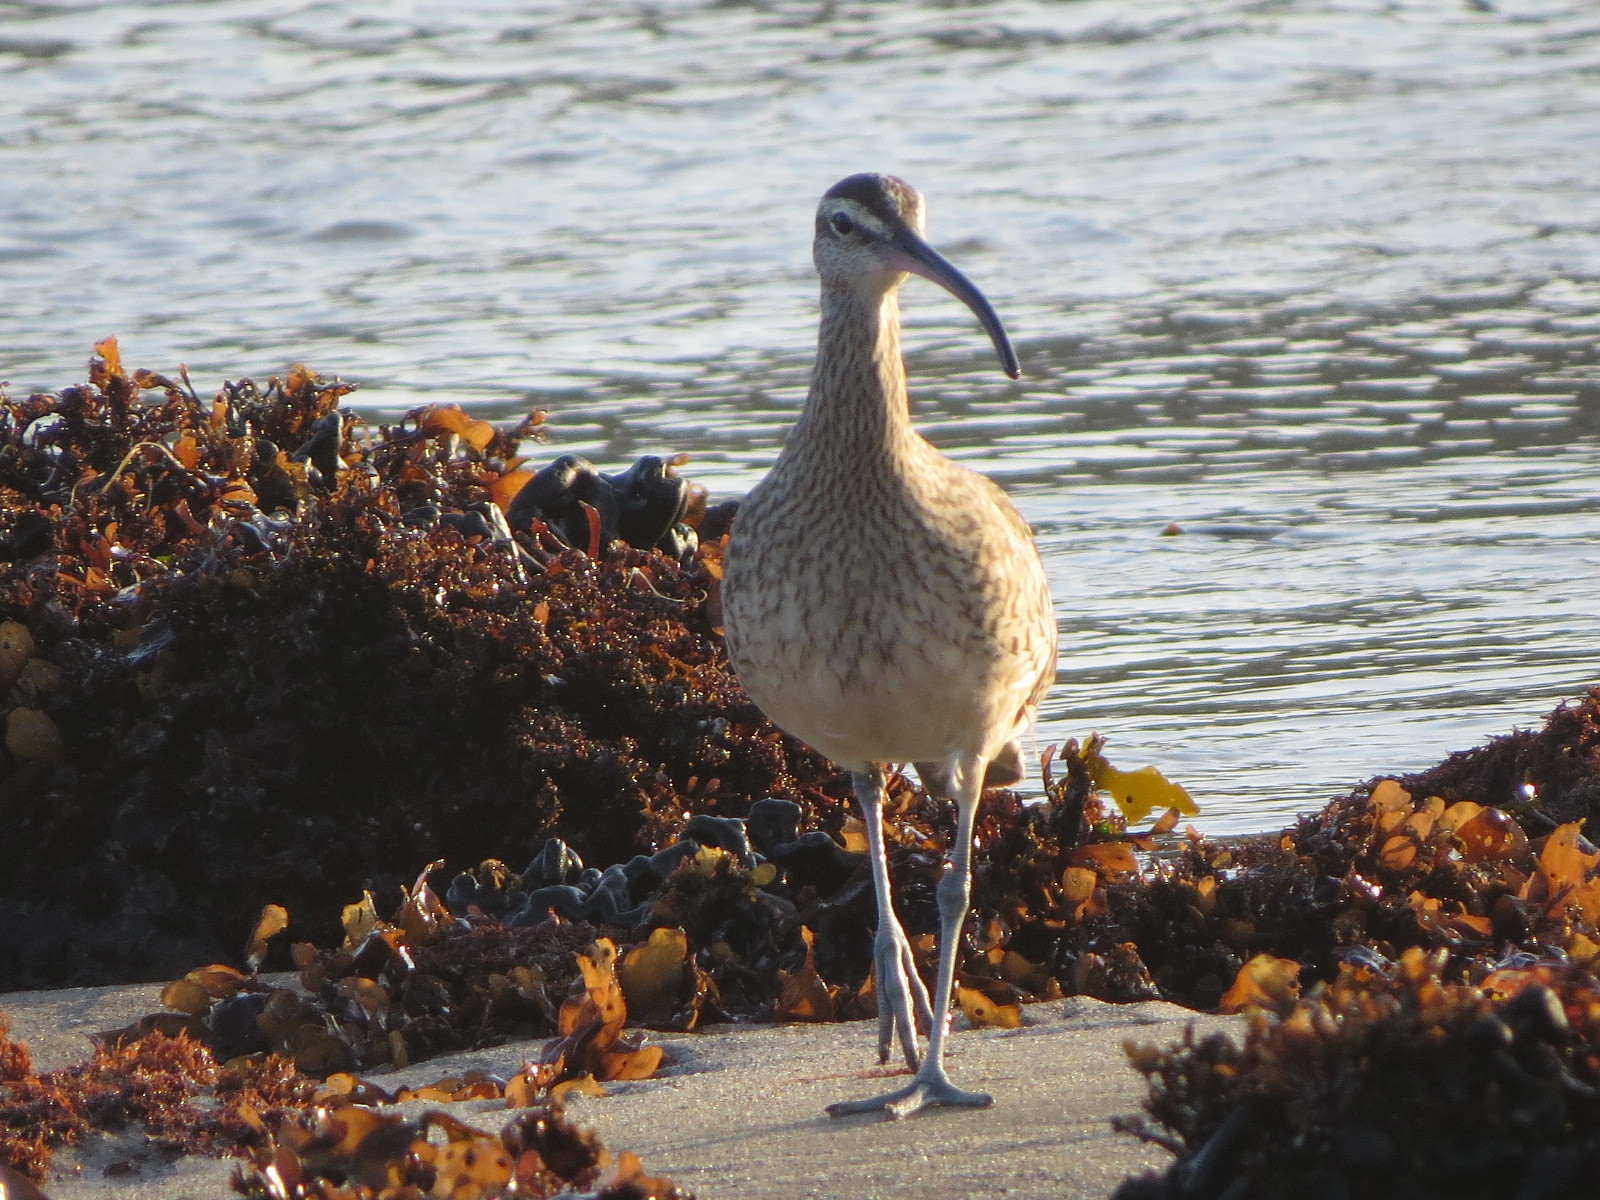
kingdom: Animalia
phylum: Chordata
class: Aves
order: Charadriiformes
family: Scolopacidae
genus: Numenius
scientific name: Numenius phaeopus
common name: Whimbrel
